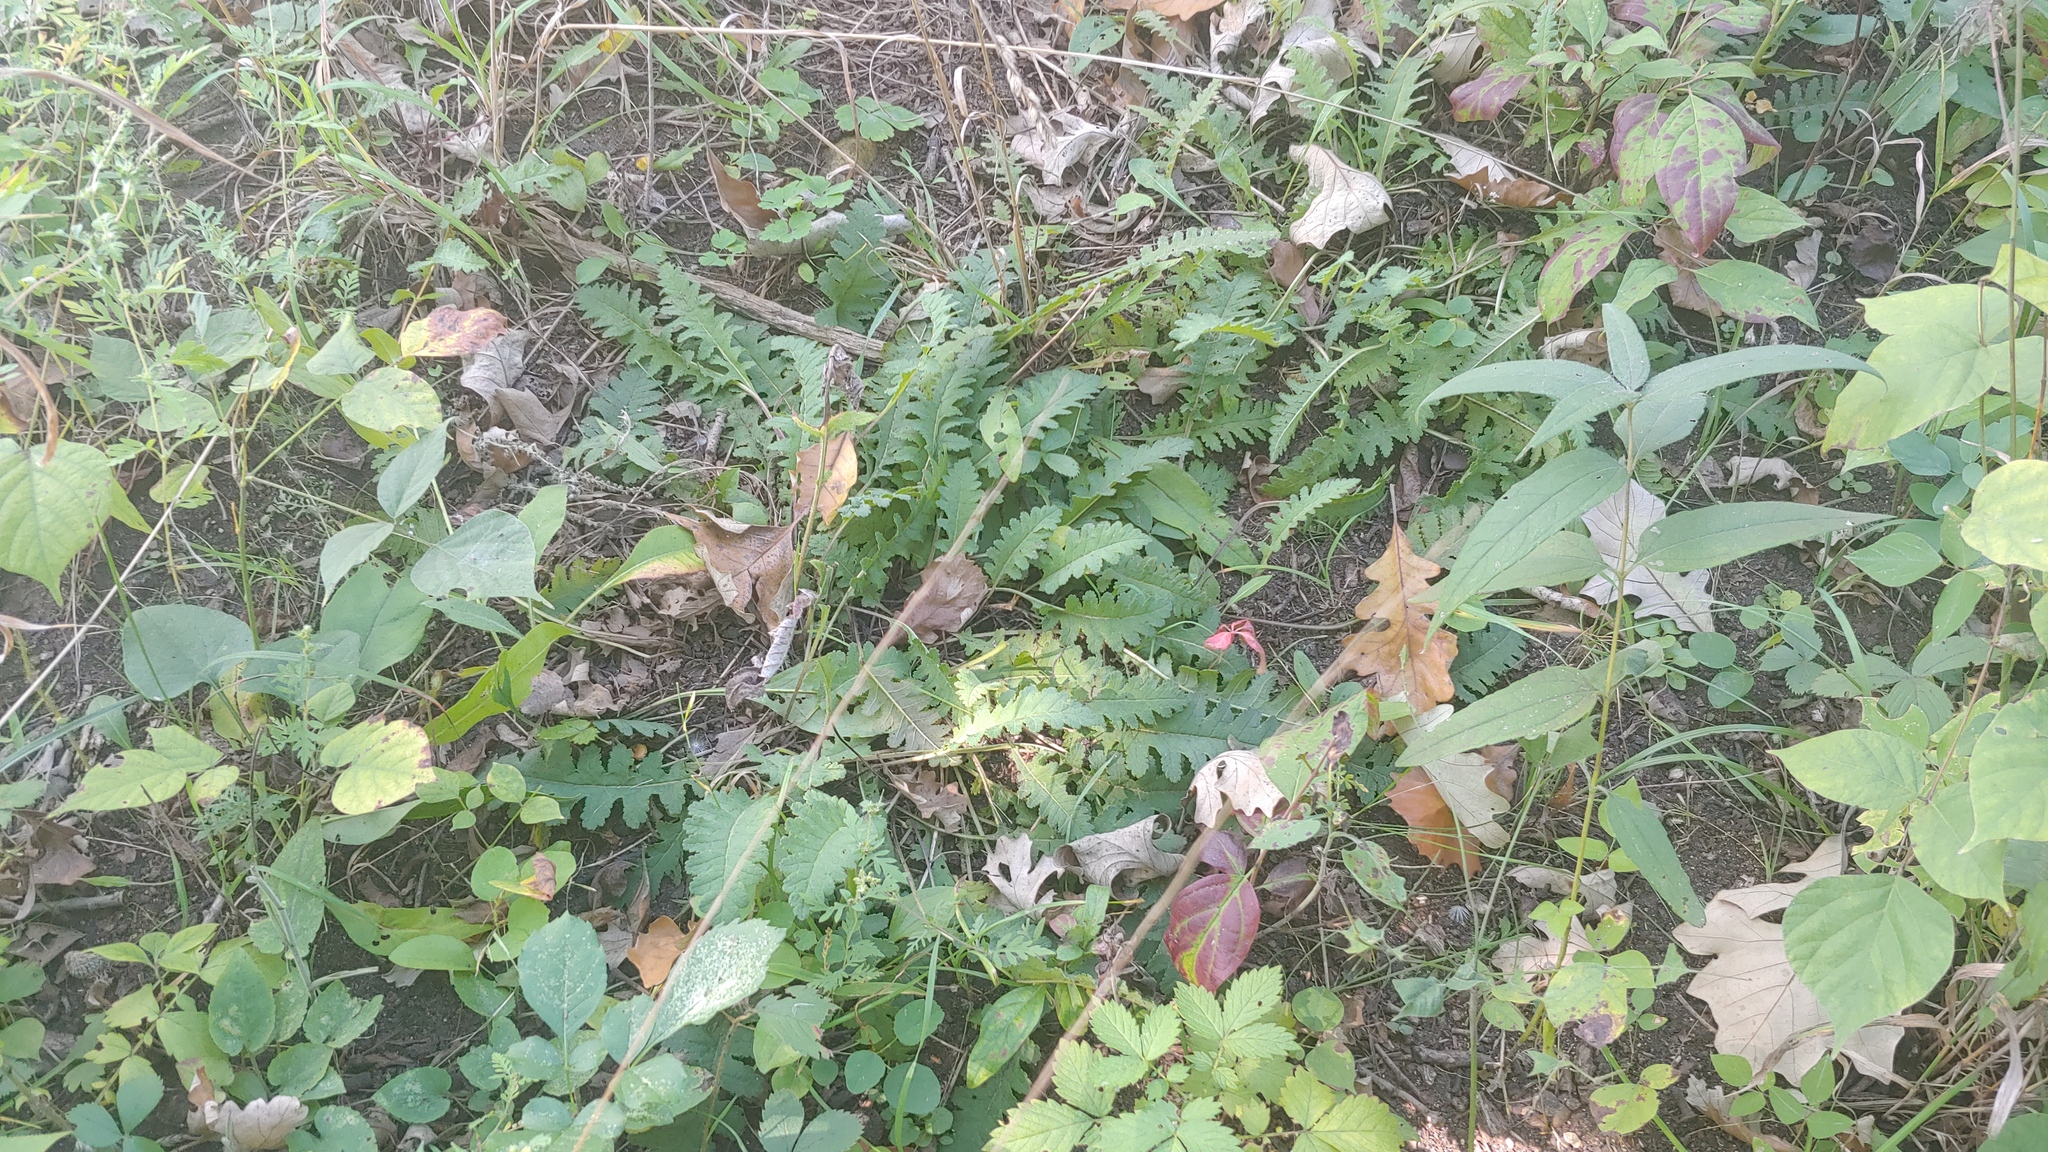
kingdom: Plantae
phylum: Tracheophyta
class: Magnoliopsida
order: Lamiales
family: Orobanchaceae
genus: Pedicularis
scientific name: Pedicularis canadensis
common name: Early lousewort
